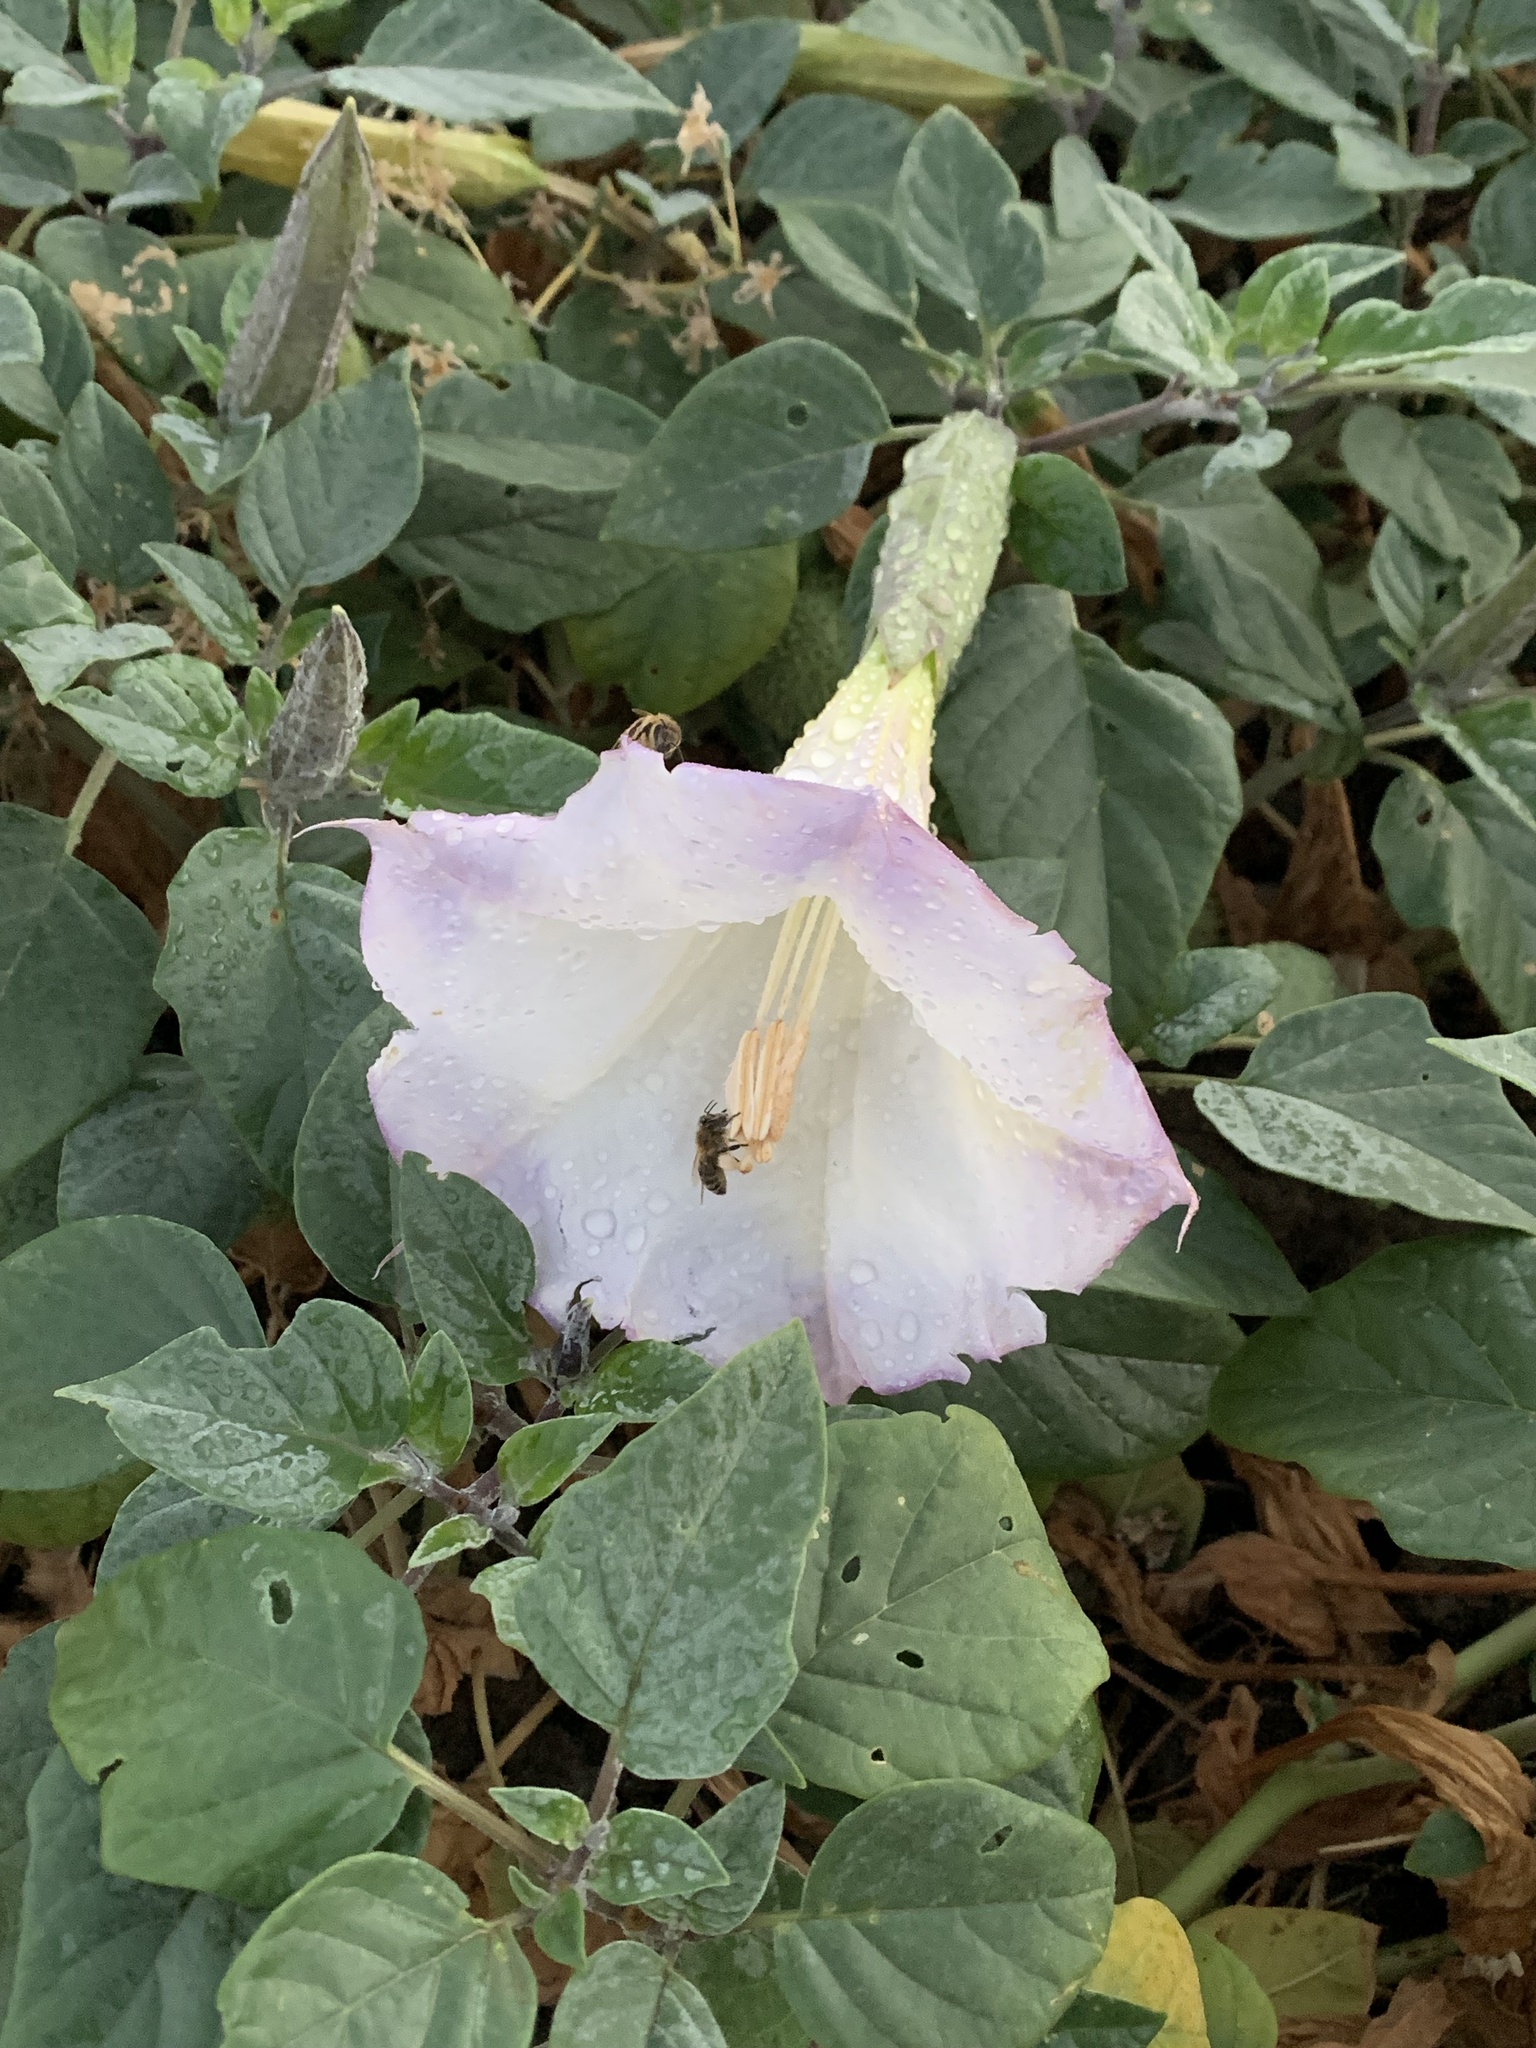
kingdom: Plantae
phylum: Tracheophyta
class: Magnoliopsida
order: Solanales
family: Solanaceae
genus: Datura
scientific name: Datura wrightii
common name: Sacred thorn-apple
